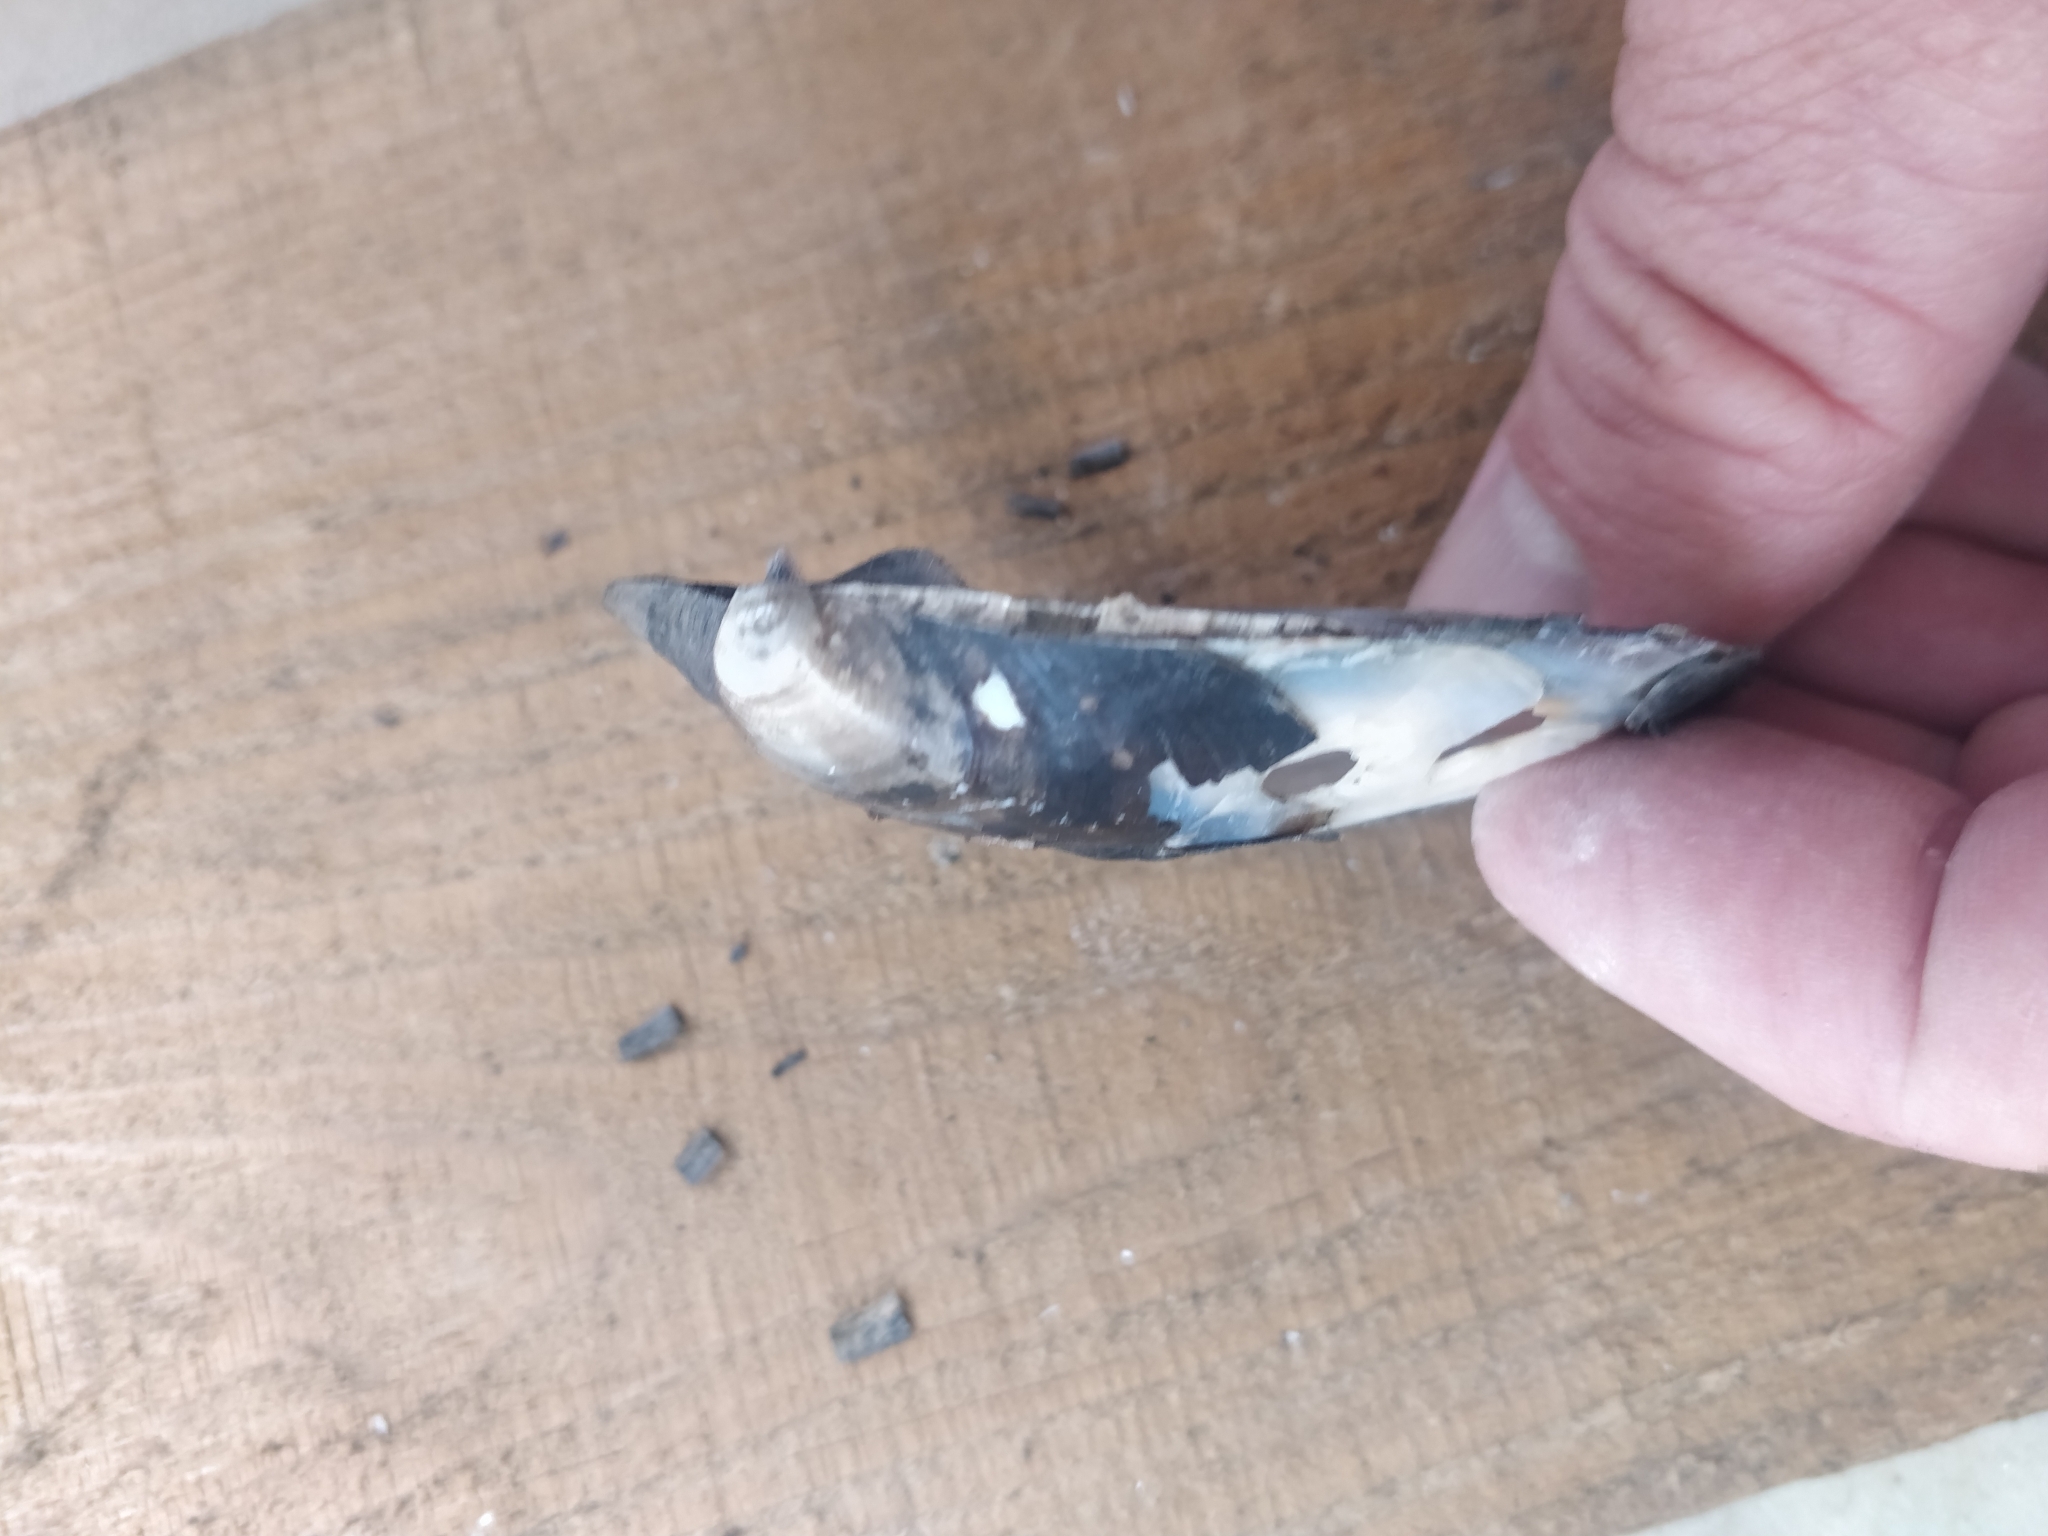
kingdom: Animalia
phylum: Mollusca
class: Bivalvia
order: Unionida
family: Unionidae
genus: Amblema
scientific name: Amblema plicata
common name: Threeridge
